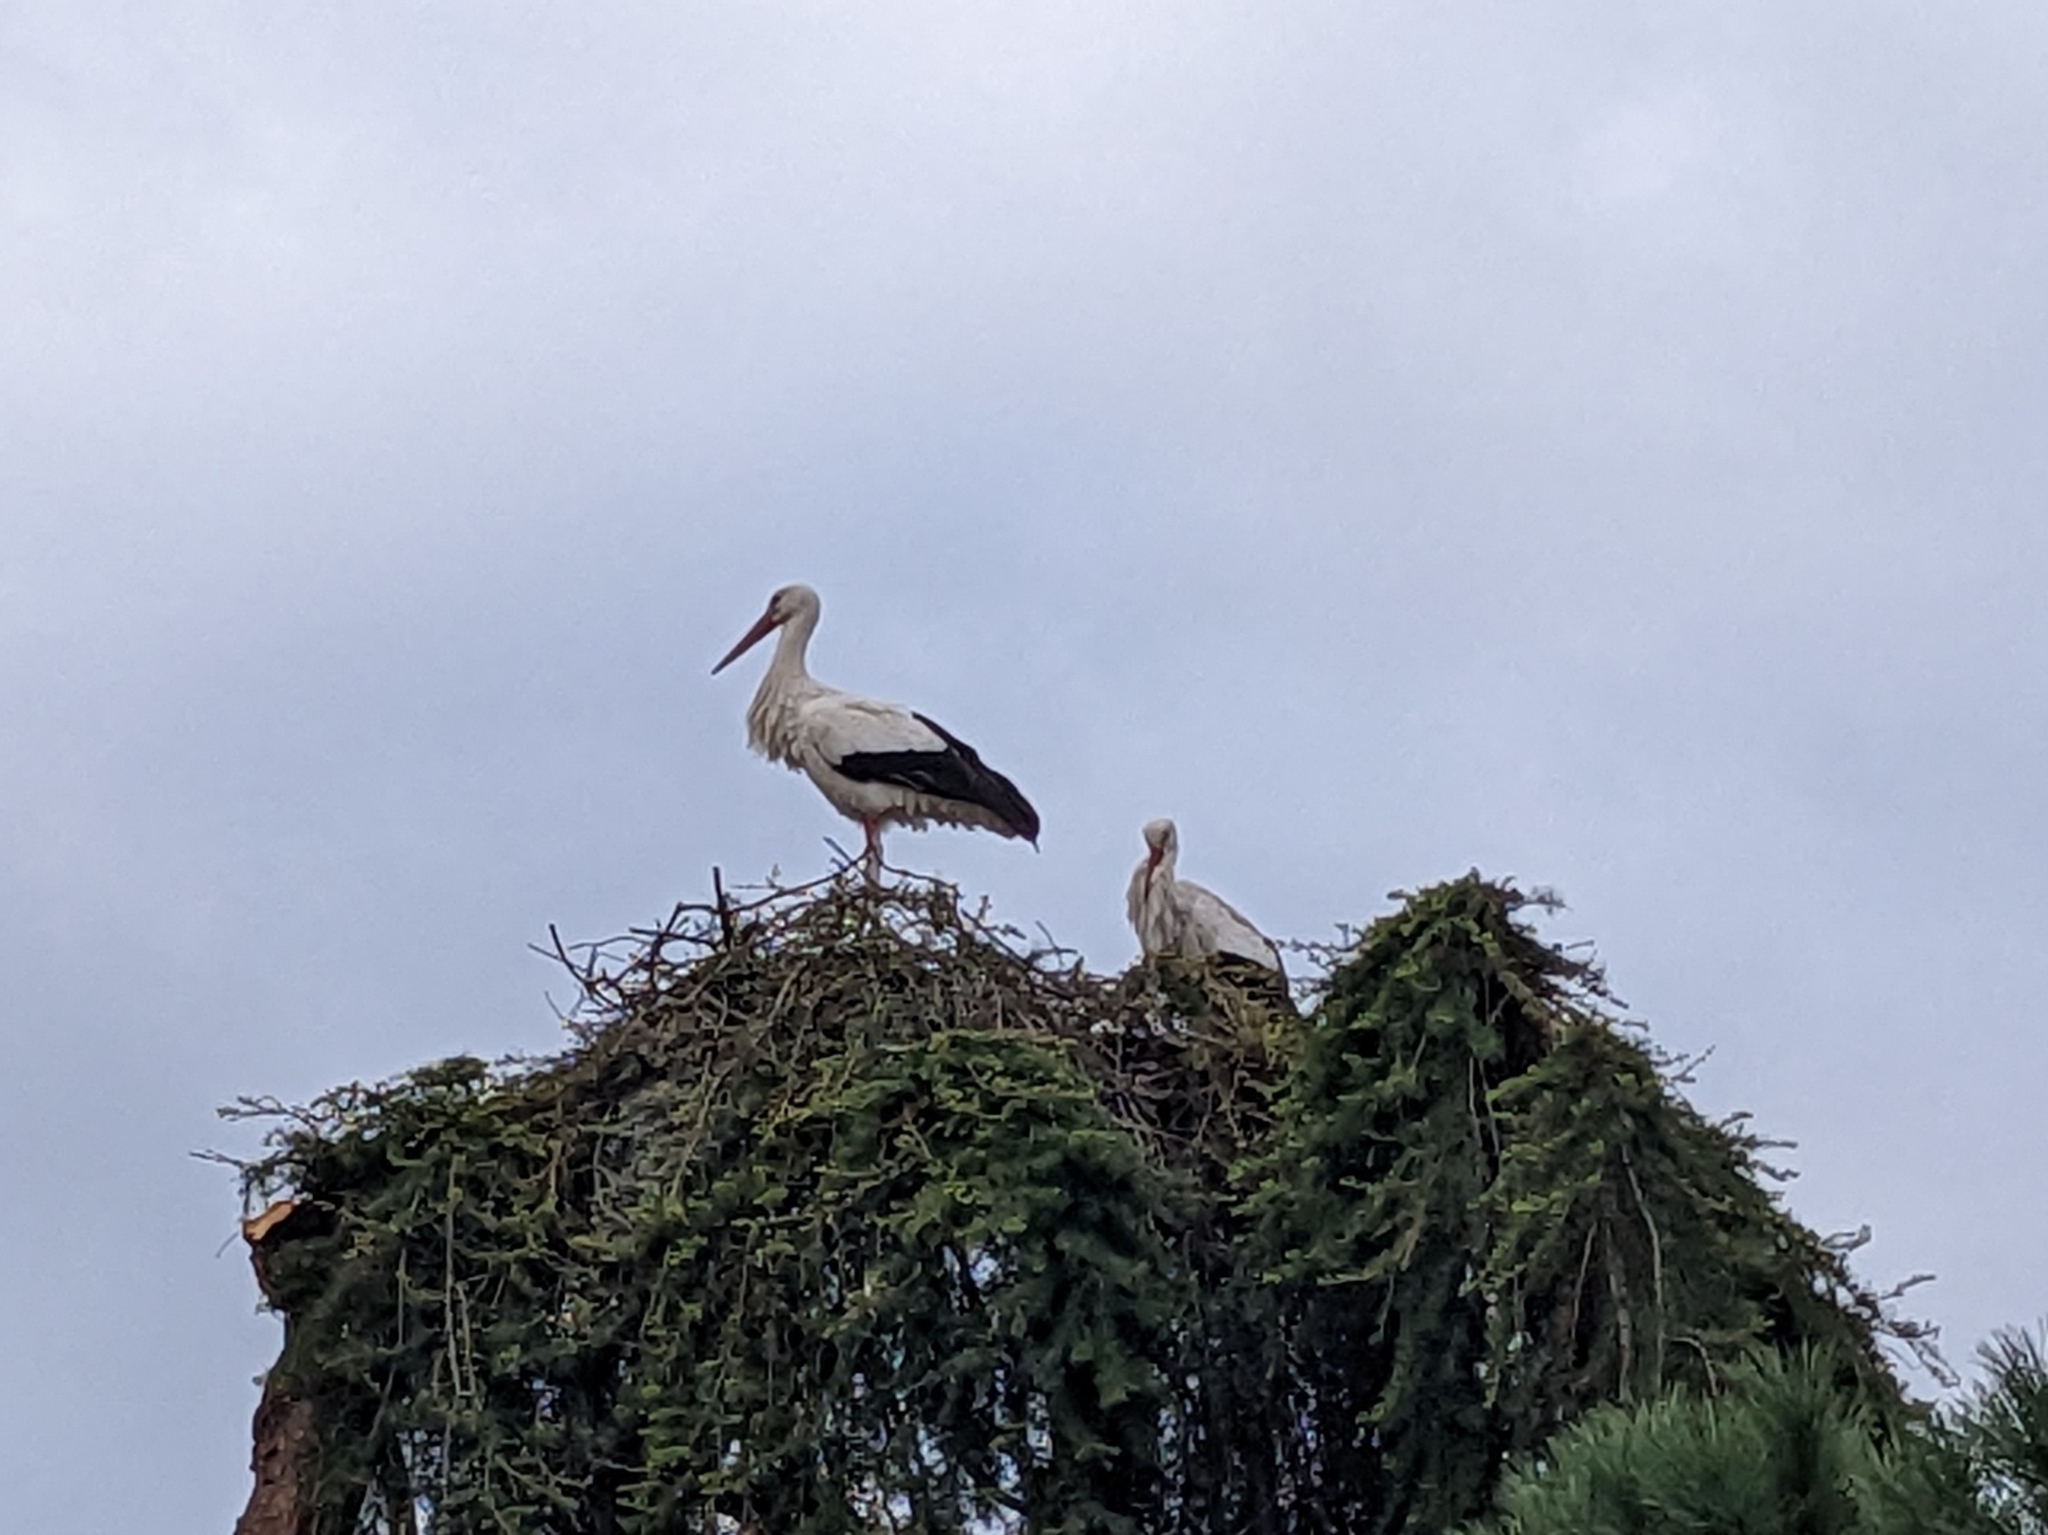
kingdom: Animalia
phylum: Chordata
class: Aves
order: Ciconiiformes
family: Ciconiidae
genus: Ciconia
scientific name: Ciconia ciconia
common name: White stork
